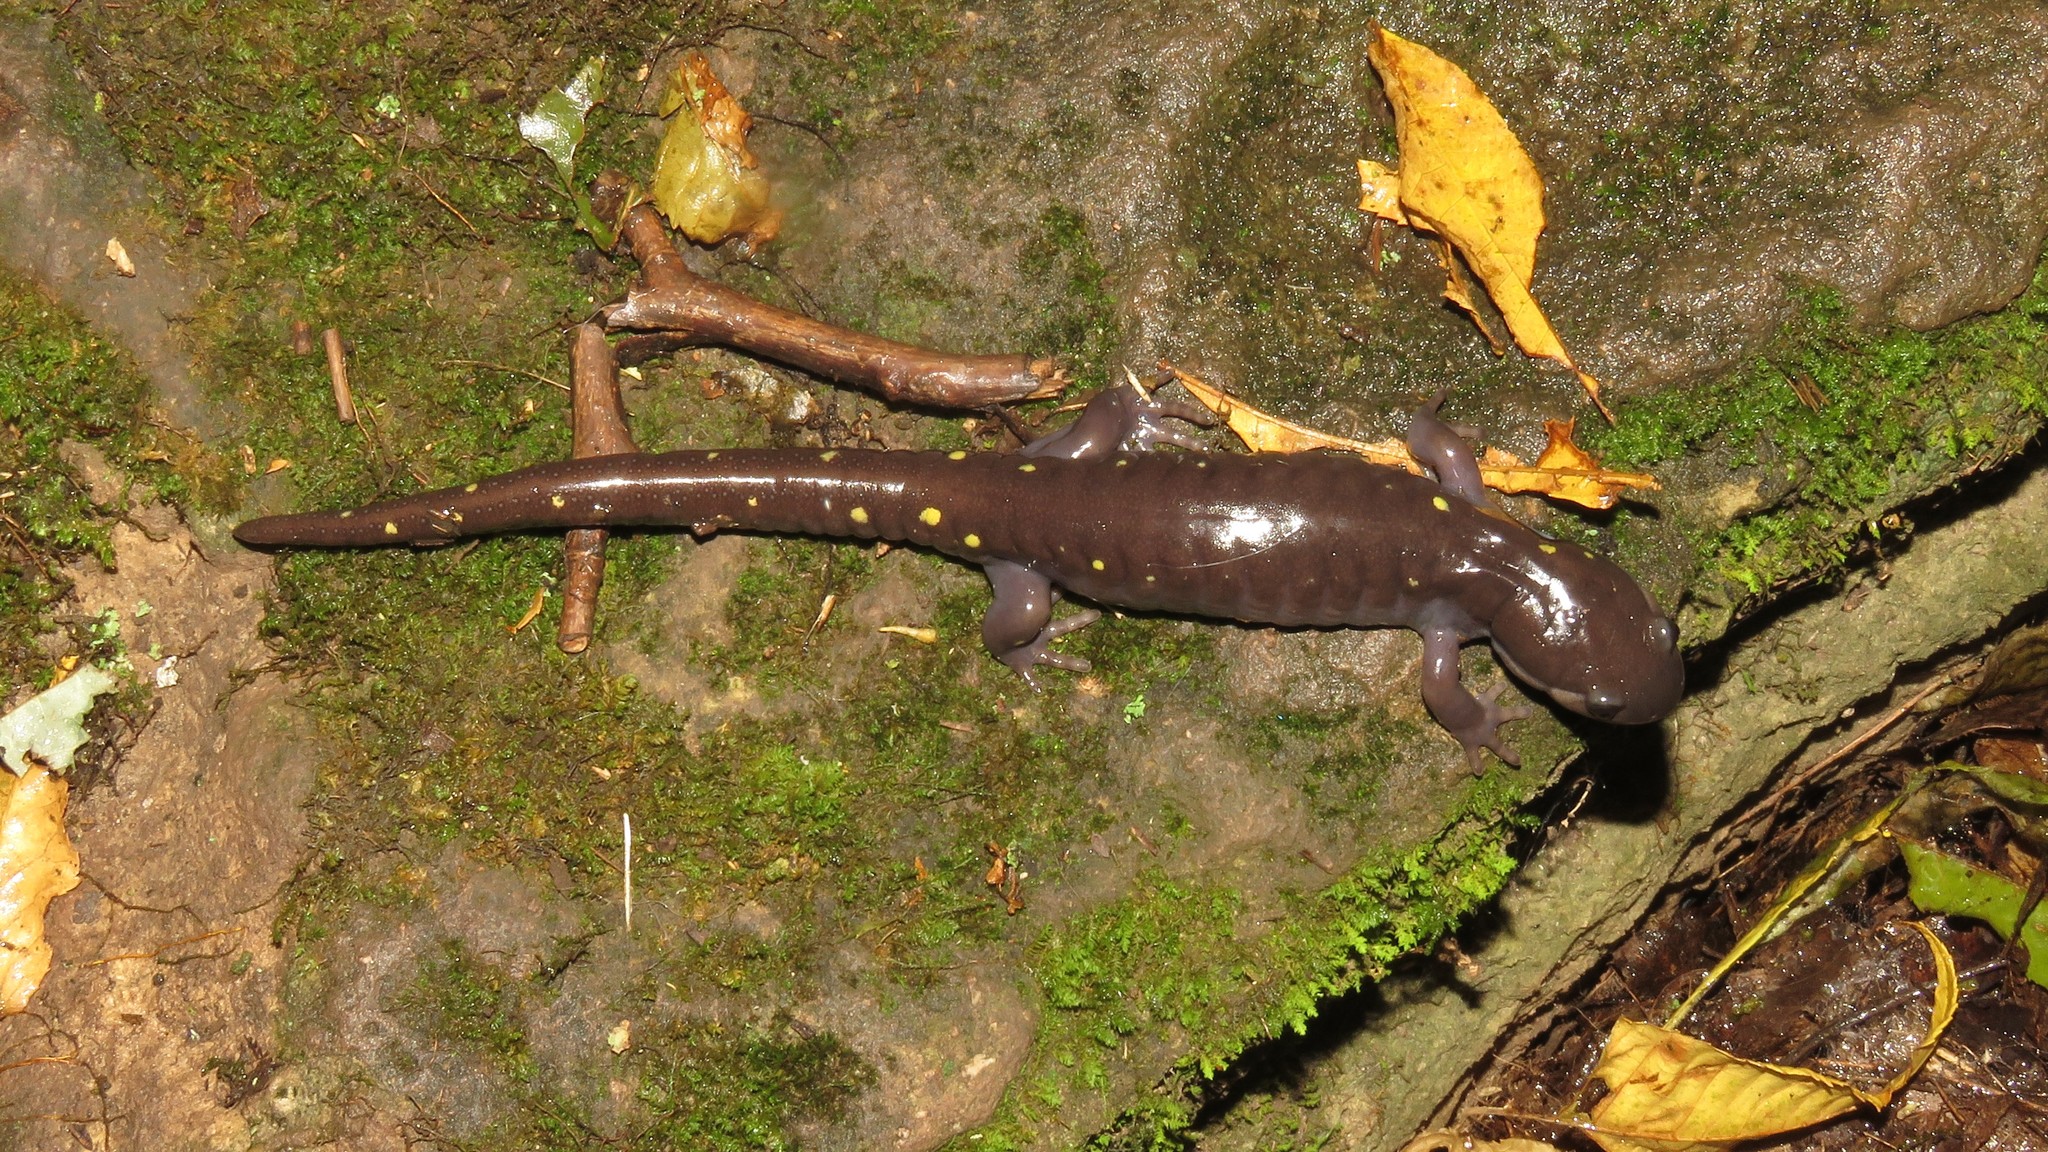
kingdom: Animalia
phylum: Chordata
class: Amphibia
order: Caudata
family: Ambystomatidae
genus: Ambystoma
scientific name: Ambystoma maculatum
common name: Spotted salamander
